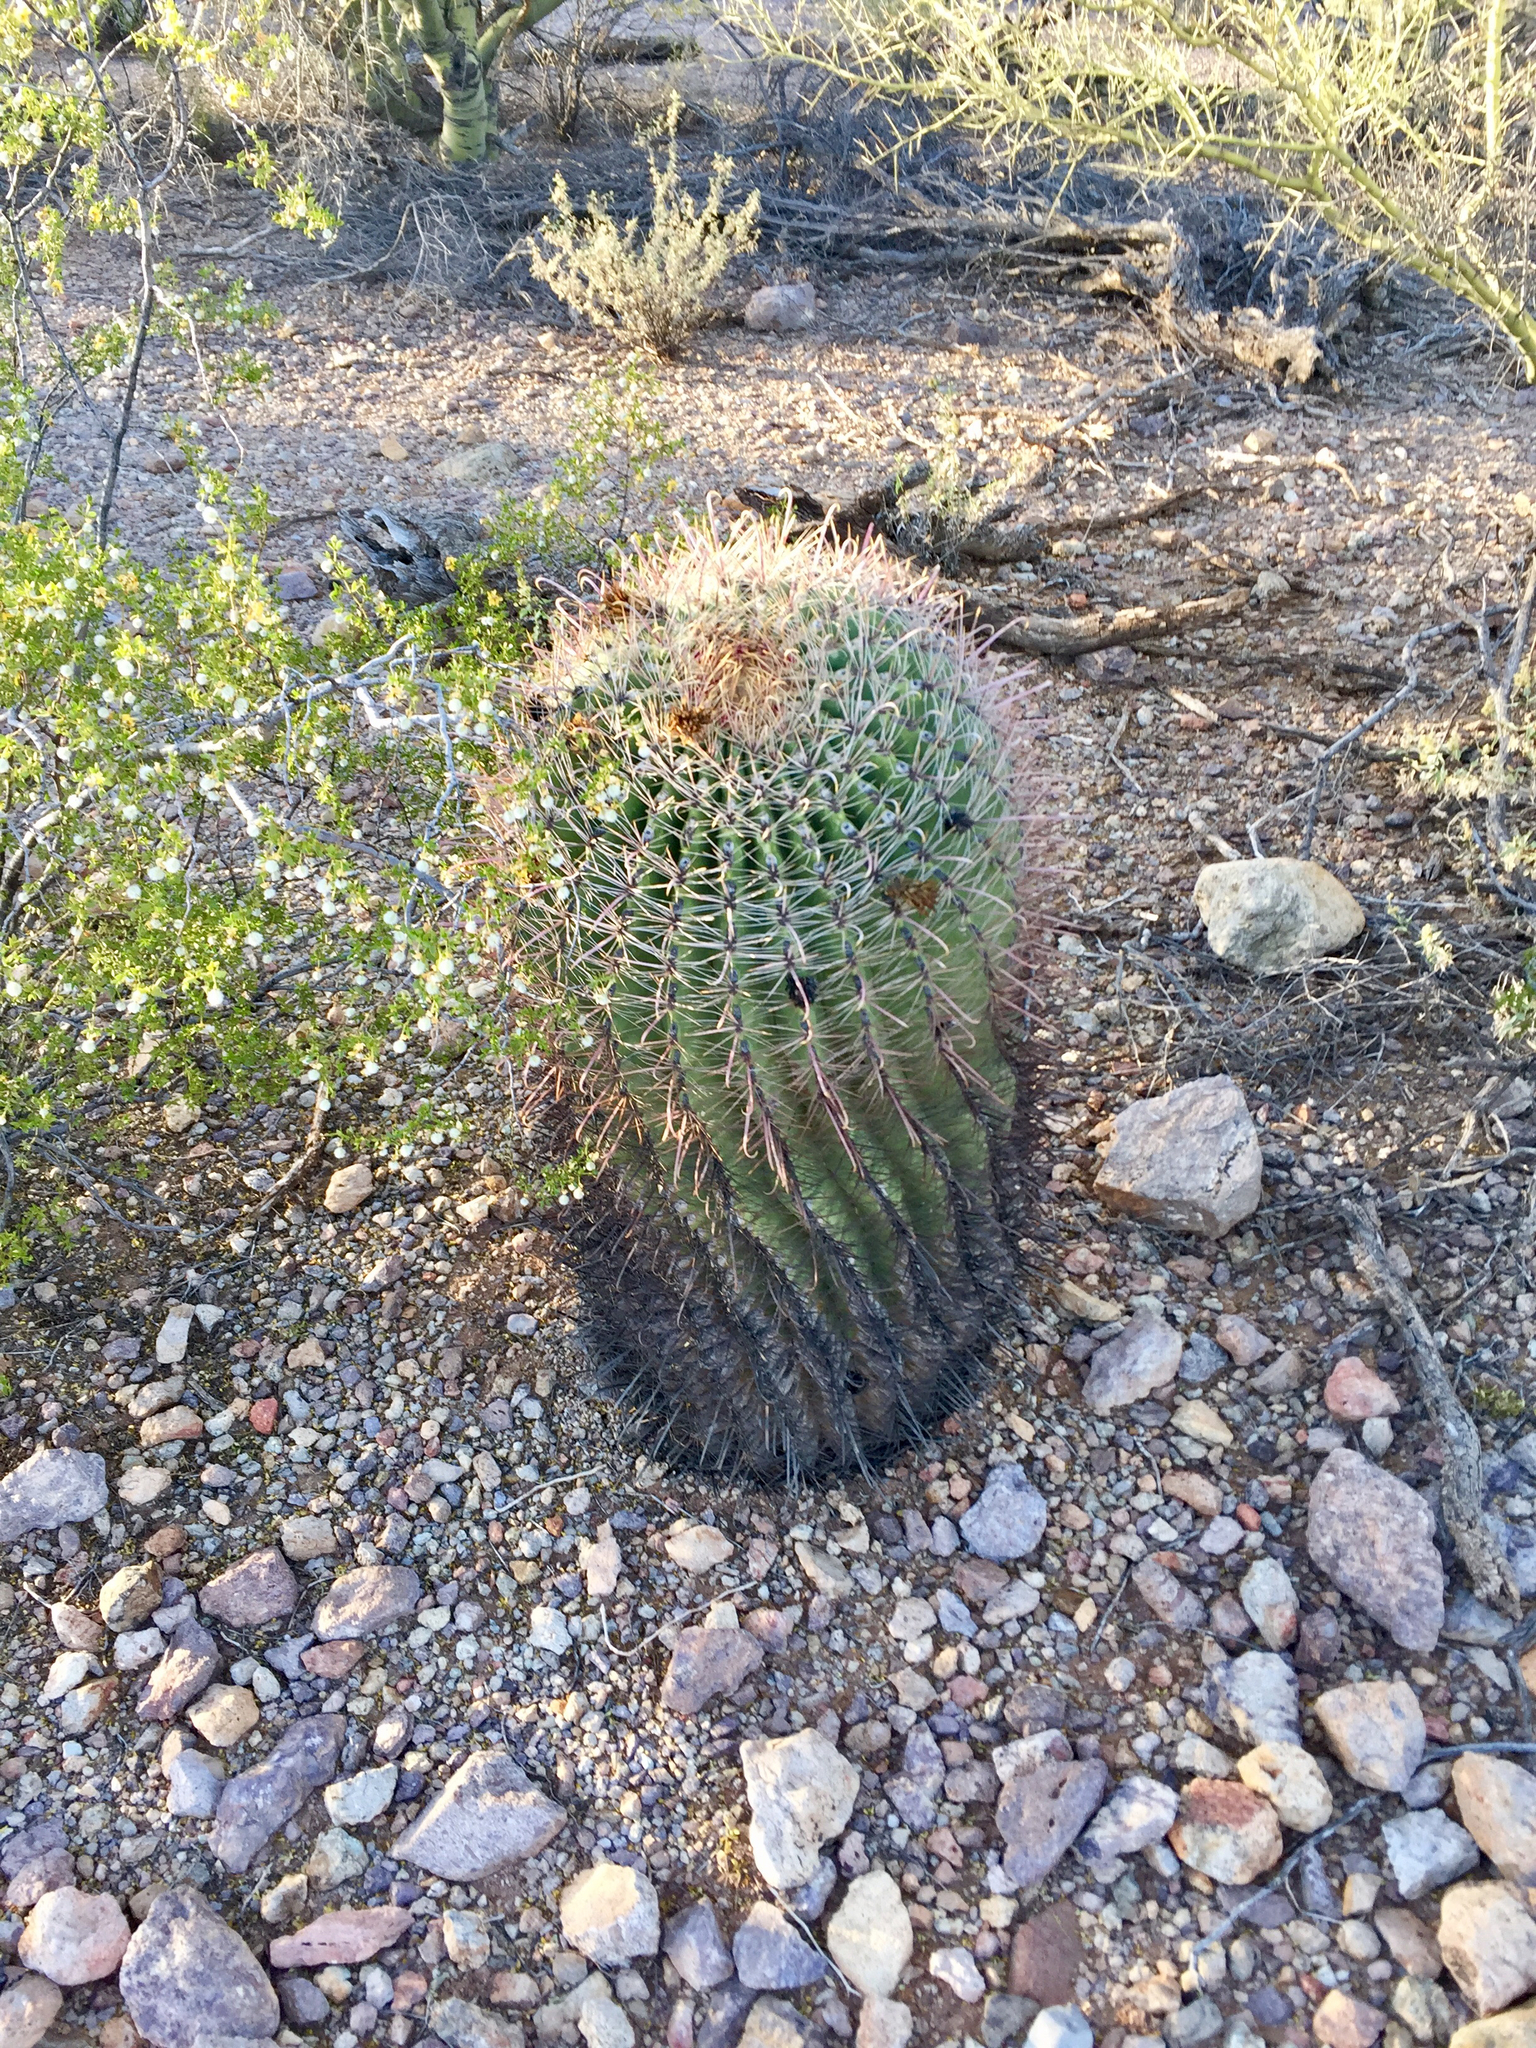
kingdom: Plantae
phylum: Tracheophyta
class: Magnoliopsida
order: Caryophyllales
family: Cactaceae
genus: Ferocactus
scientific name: Ferocactus wislizeni
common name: Candy barrel cactus
